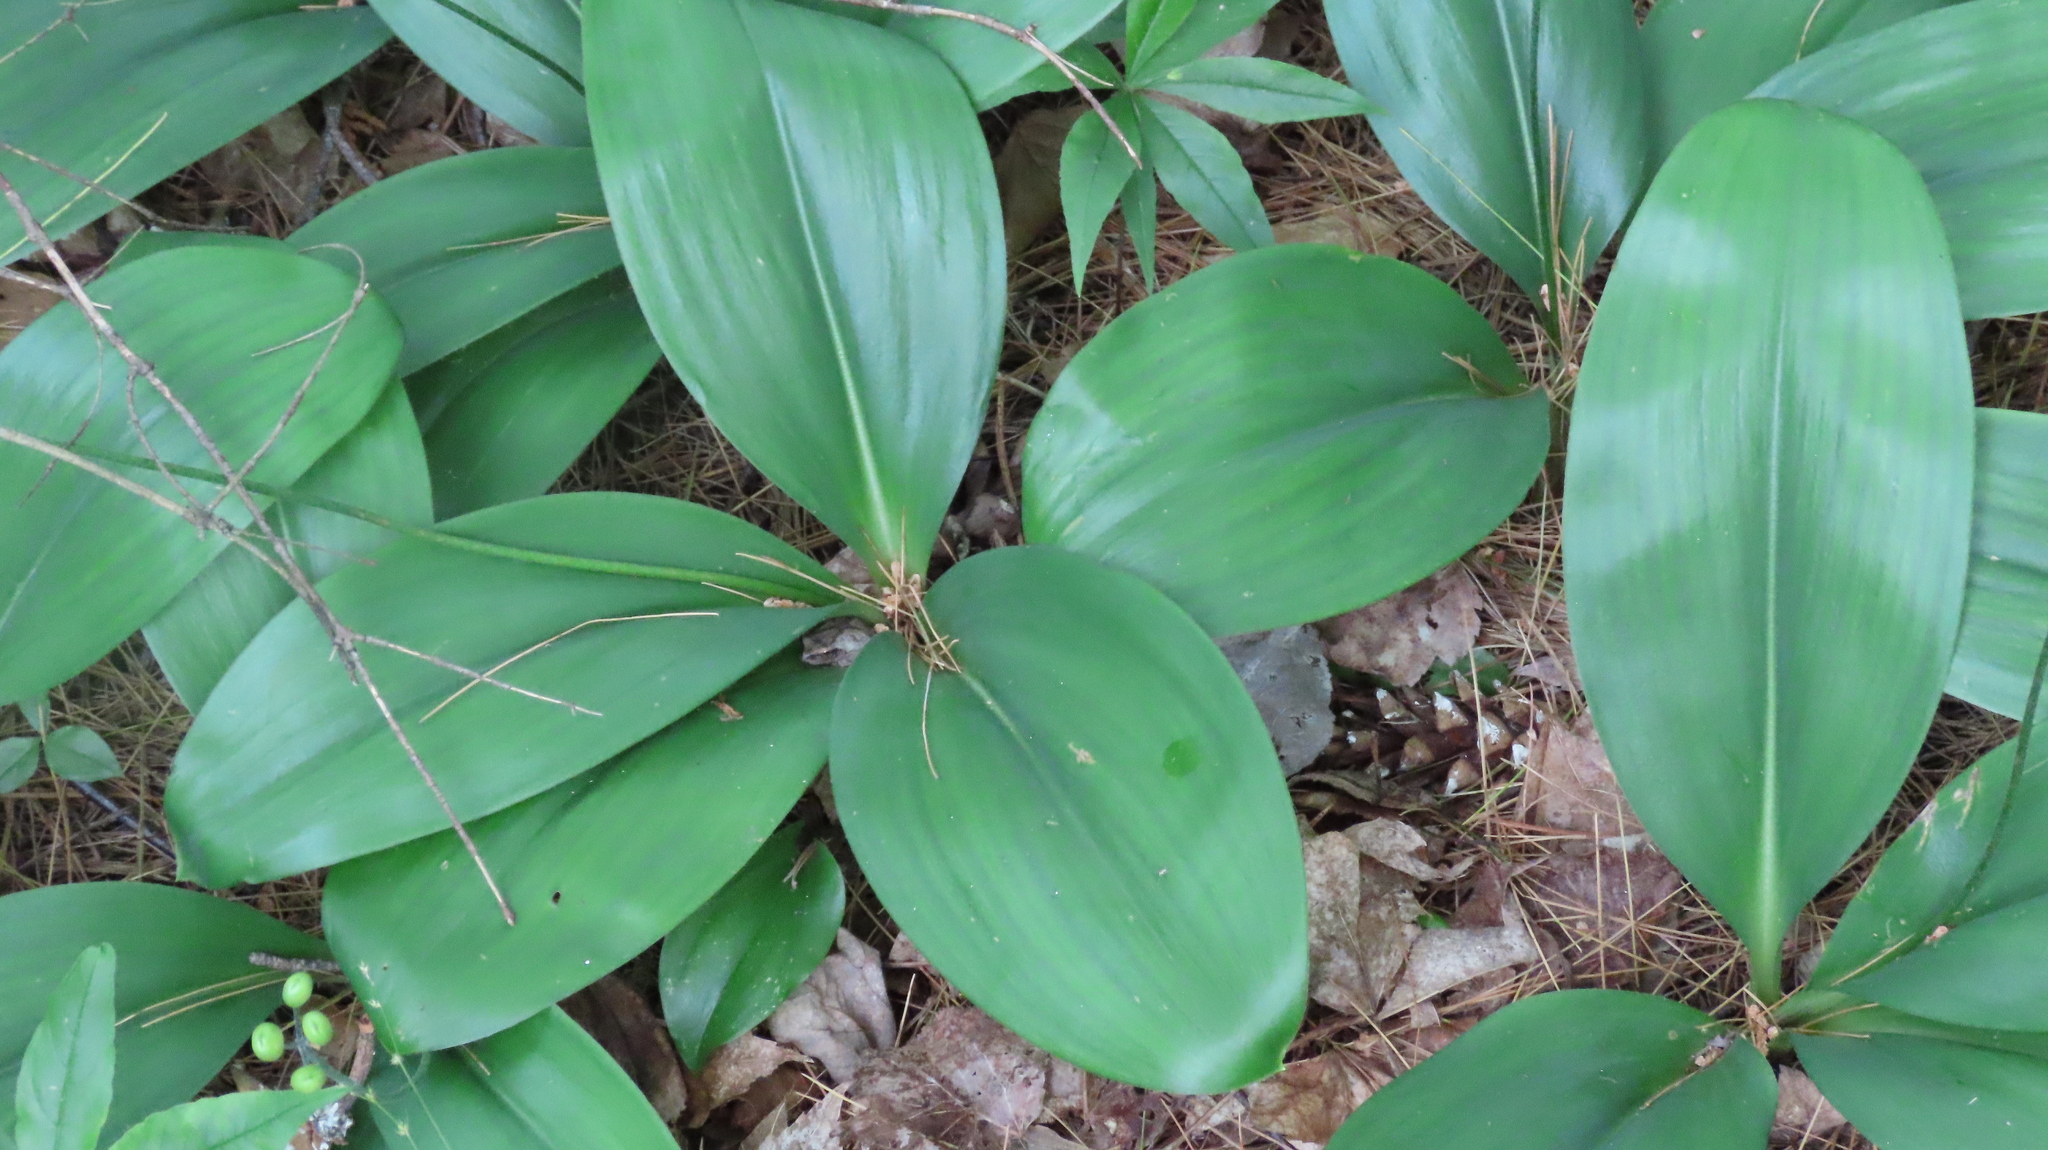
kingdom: Plantae
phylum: Tracheophyta
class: Liliopsida
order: Liliales
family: Liliaceae
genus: Clintonia
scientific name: Clintonia borealis
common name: Yellow clintonia
